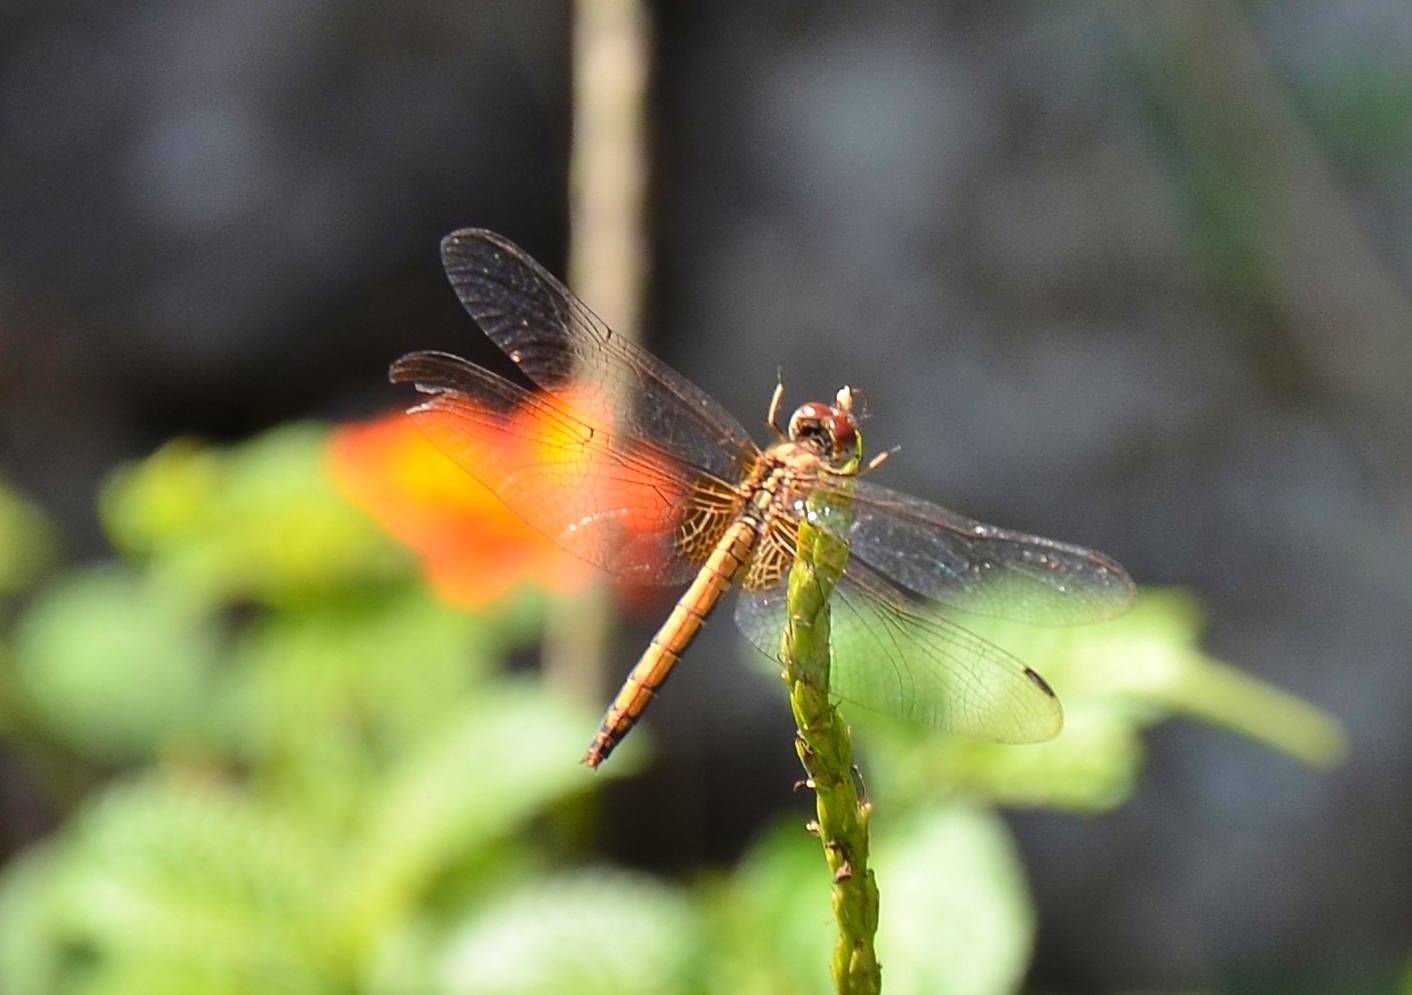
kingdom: Animalia
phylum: Arthropoda
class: Insecta
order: Odonata
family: Libellulidae
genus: Trithemis
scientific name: Trithemis aurora
